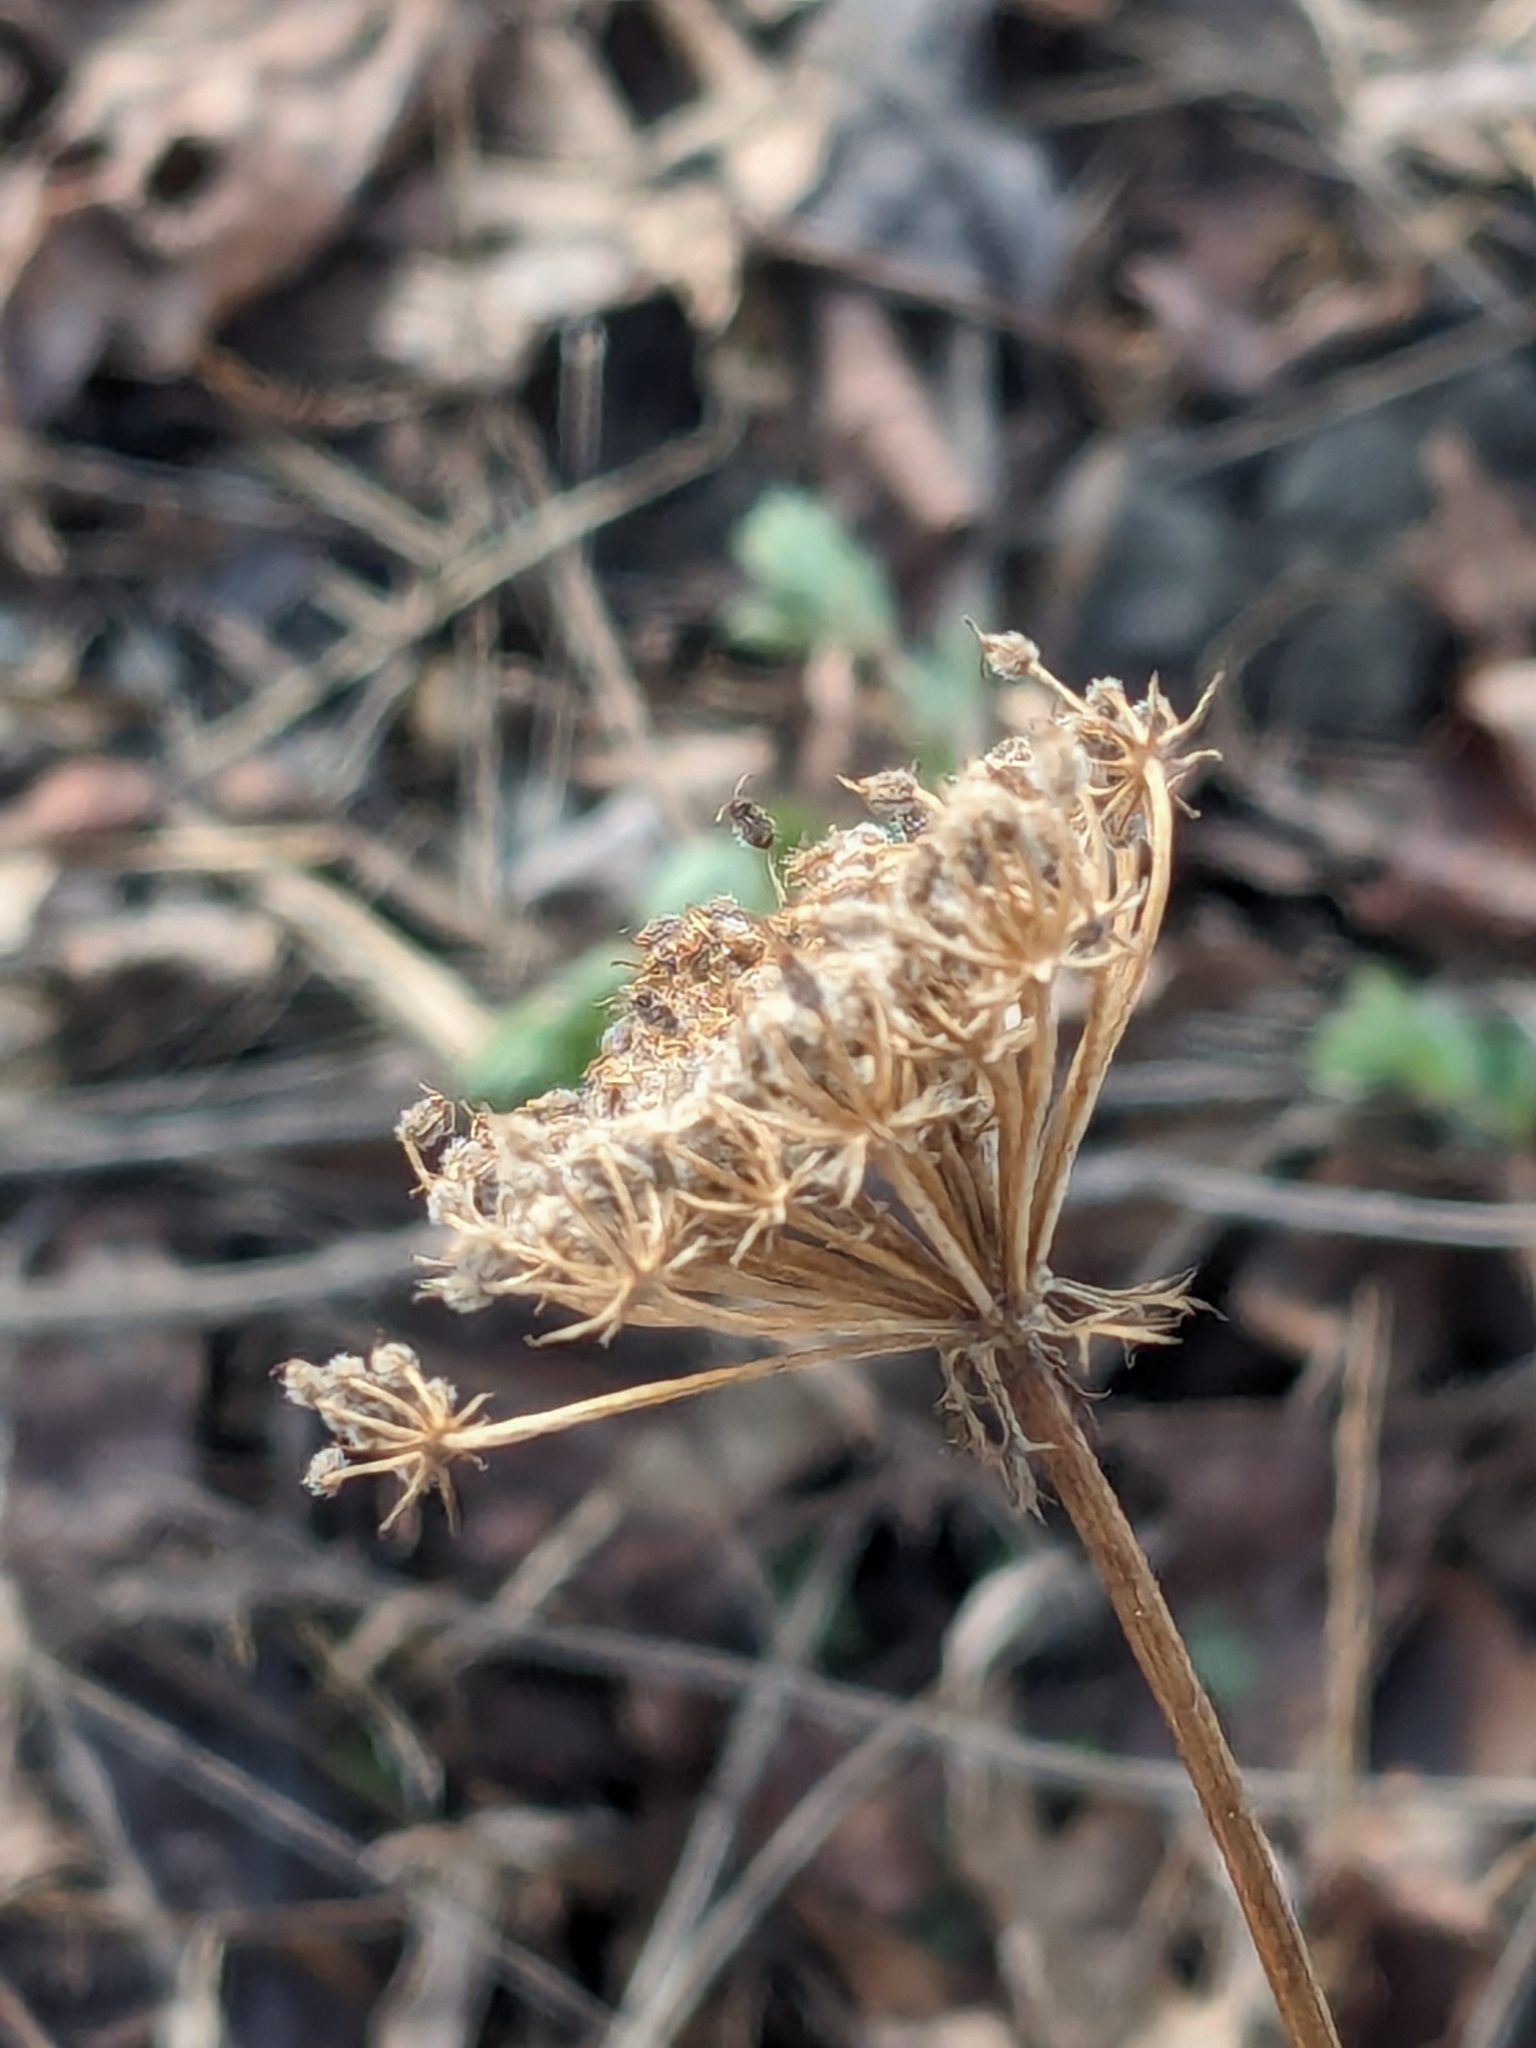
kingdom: Plantae
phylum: Tracheophyta
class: Magnoliopsida
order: Apiales
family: Apiaceae
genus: Daucus
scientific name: Daucus carota
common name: Wild carrot
